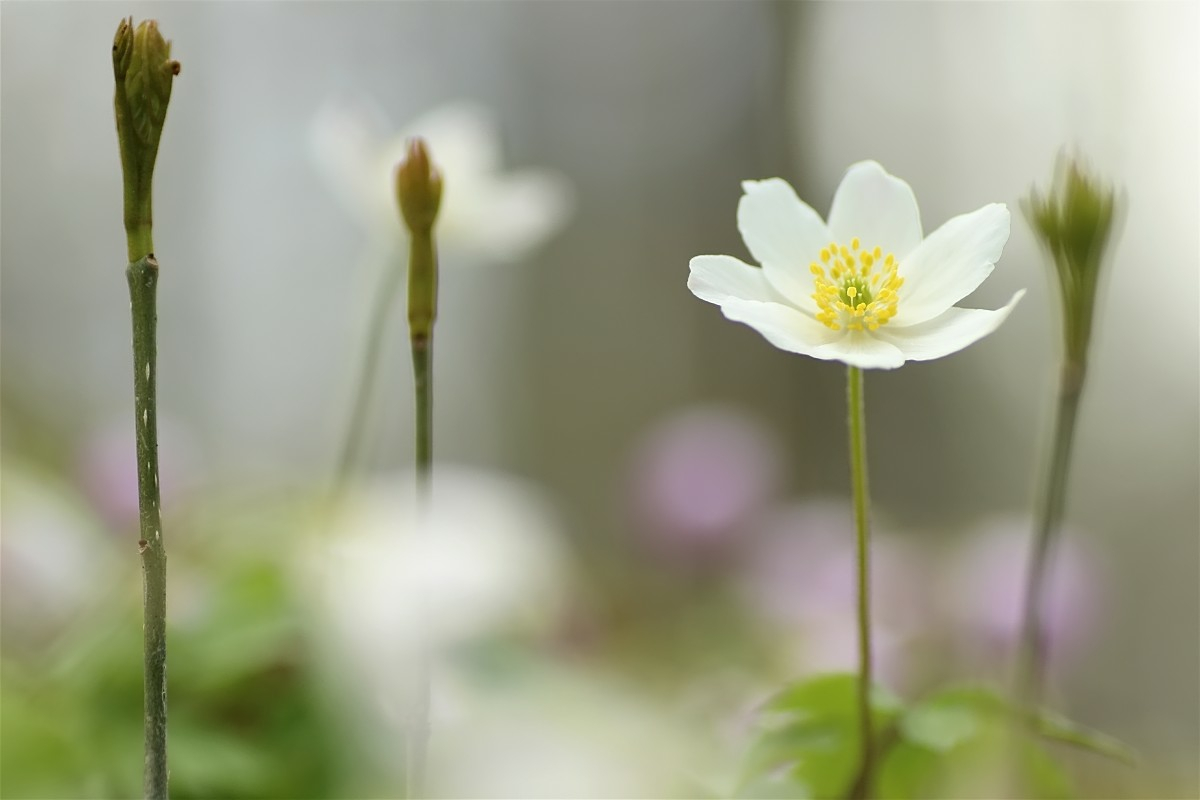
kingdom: Plantae
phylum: Tracheophyta
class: Magnoliopsida
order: Ranunculales
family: Ranunculaceae
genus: Anemone
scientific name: Anemone nemorosa
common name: Wood anemone
